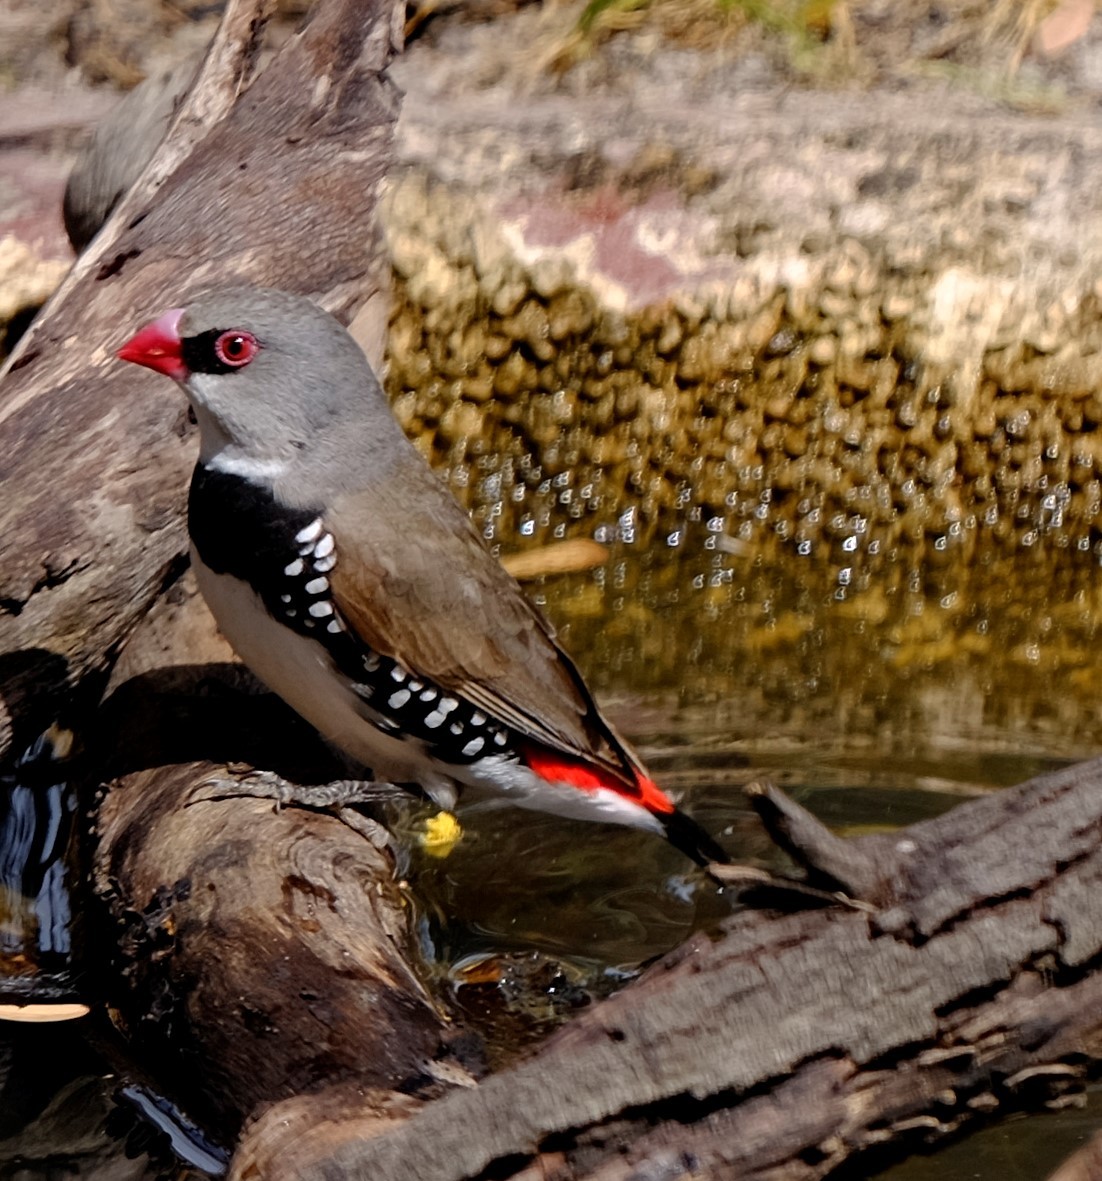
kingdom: Animalia
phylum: Chordata
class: Aves
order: Passeriformes
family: Estrildidae
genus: Stagonopleura
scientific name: Stagonopleura guttata
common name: Diamond firetail
